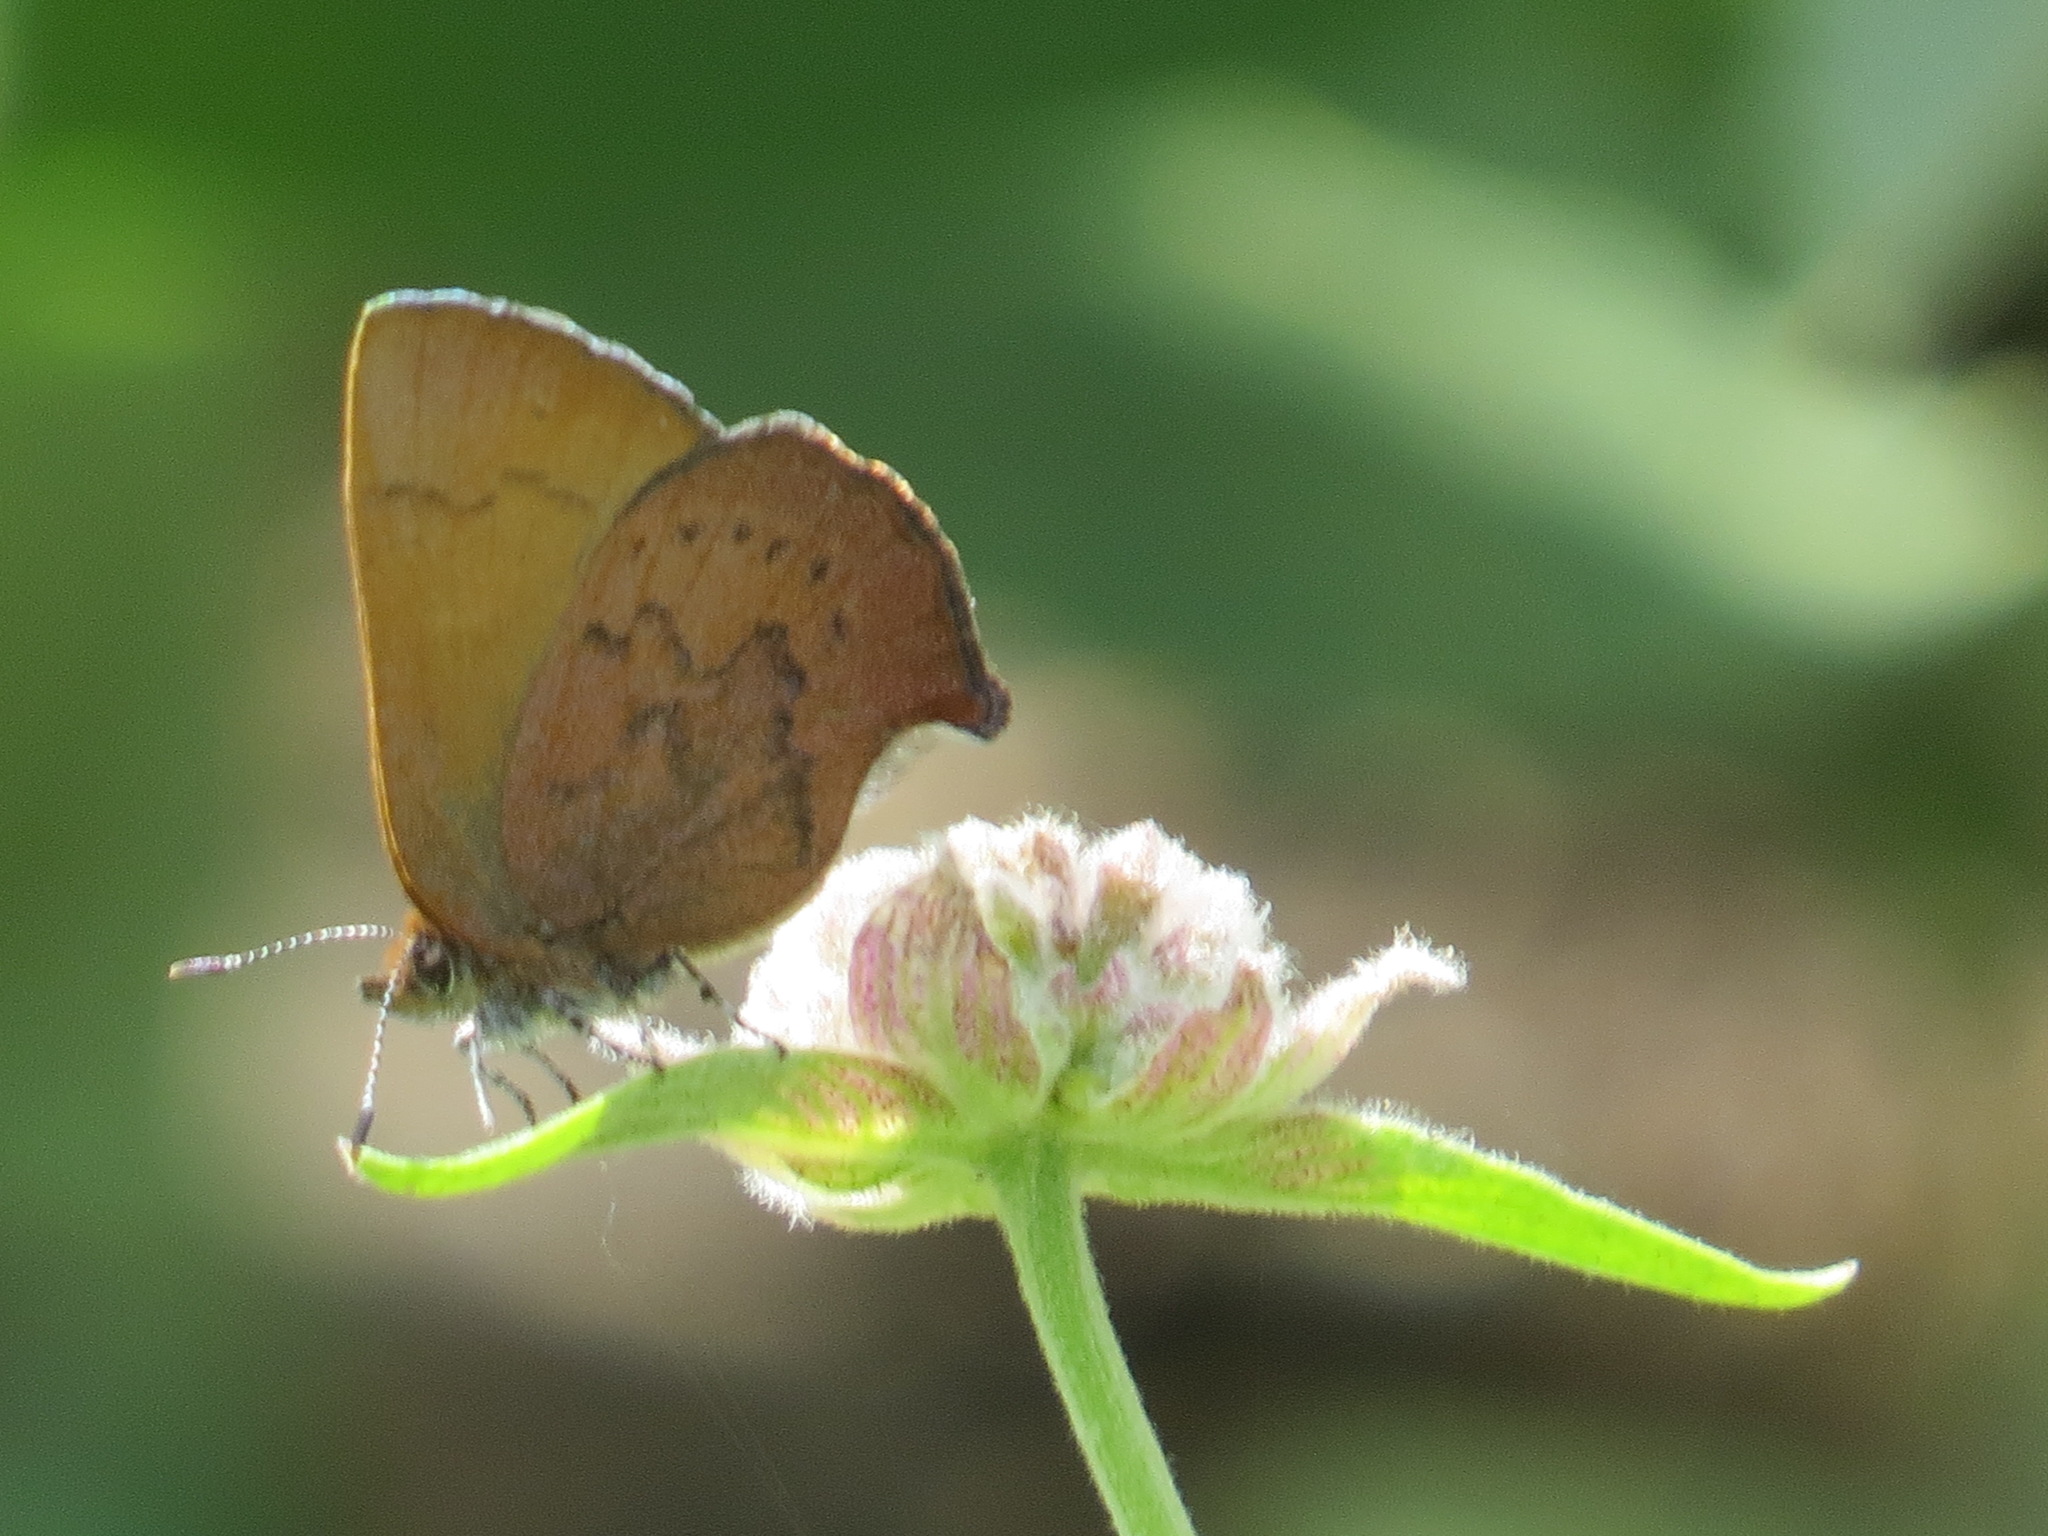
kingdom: Animalia
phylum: Arthropoda
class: Insecta
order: Lepidoptera
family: Lycaenidae
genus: Incisalia
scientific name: Incisalia irioides
